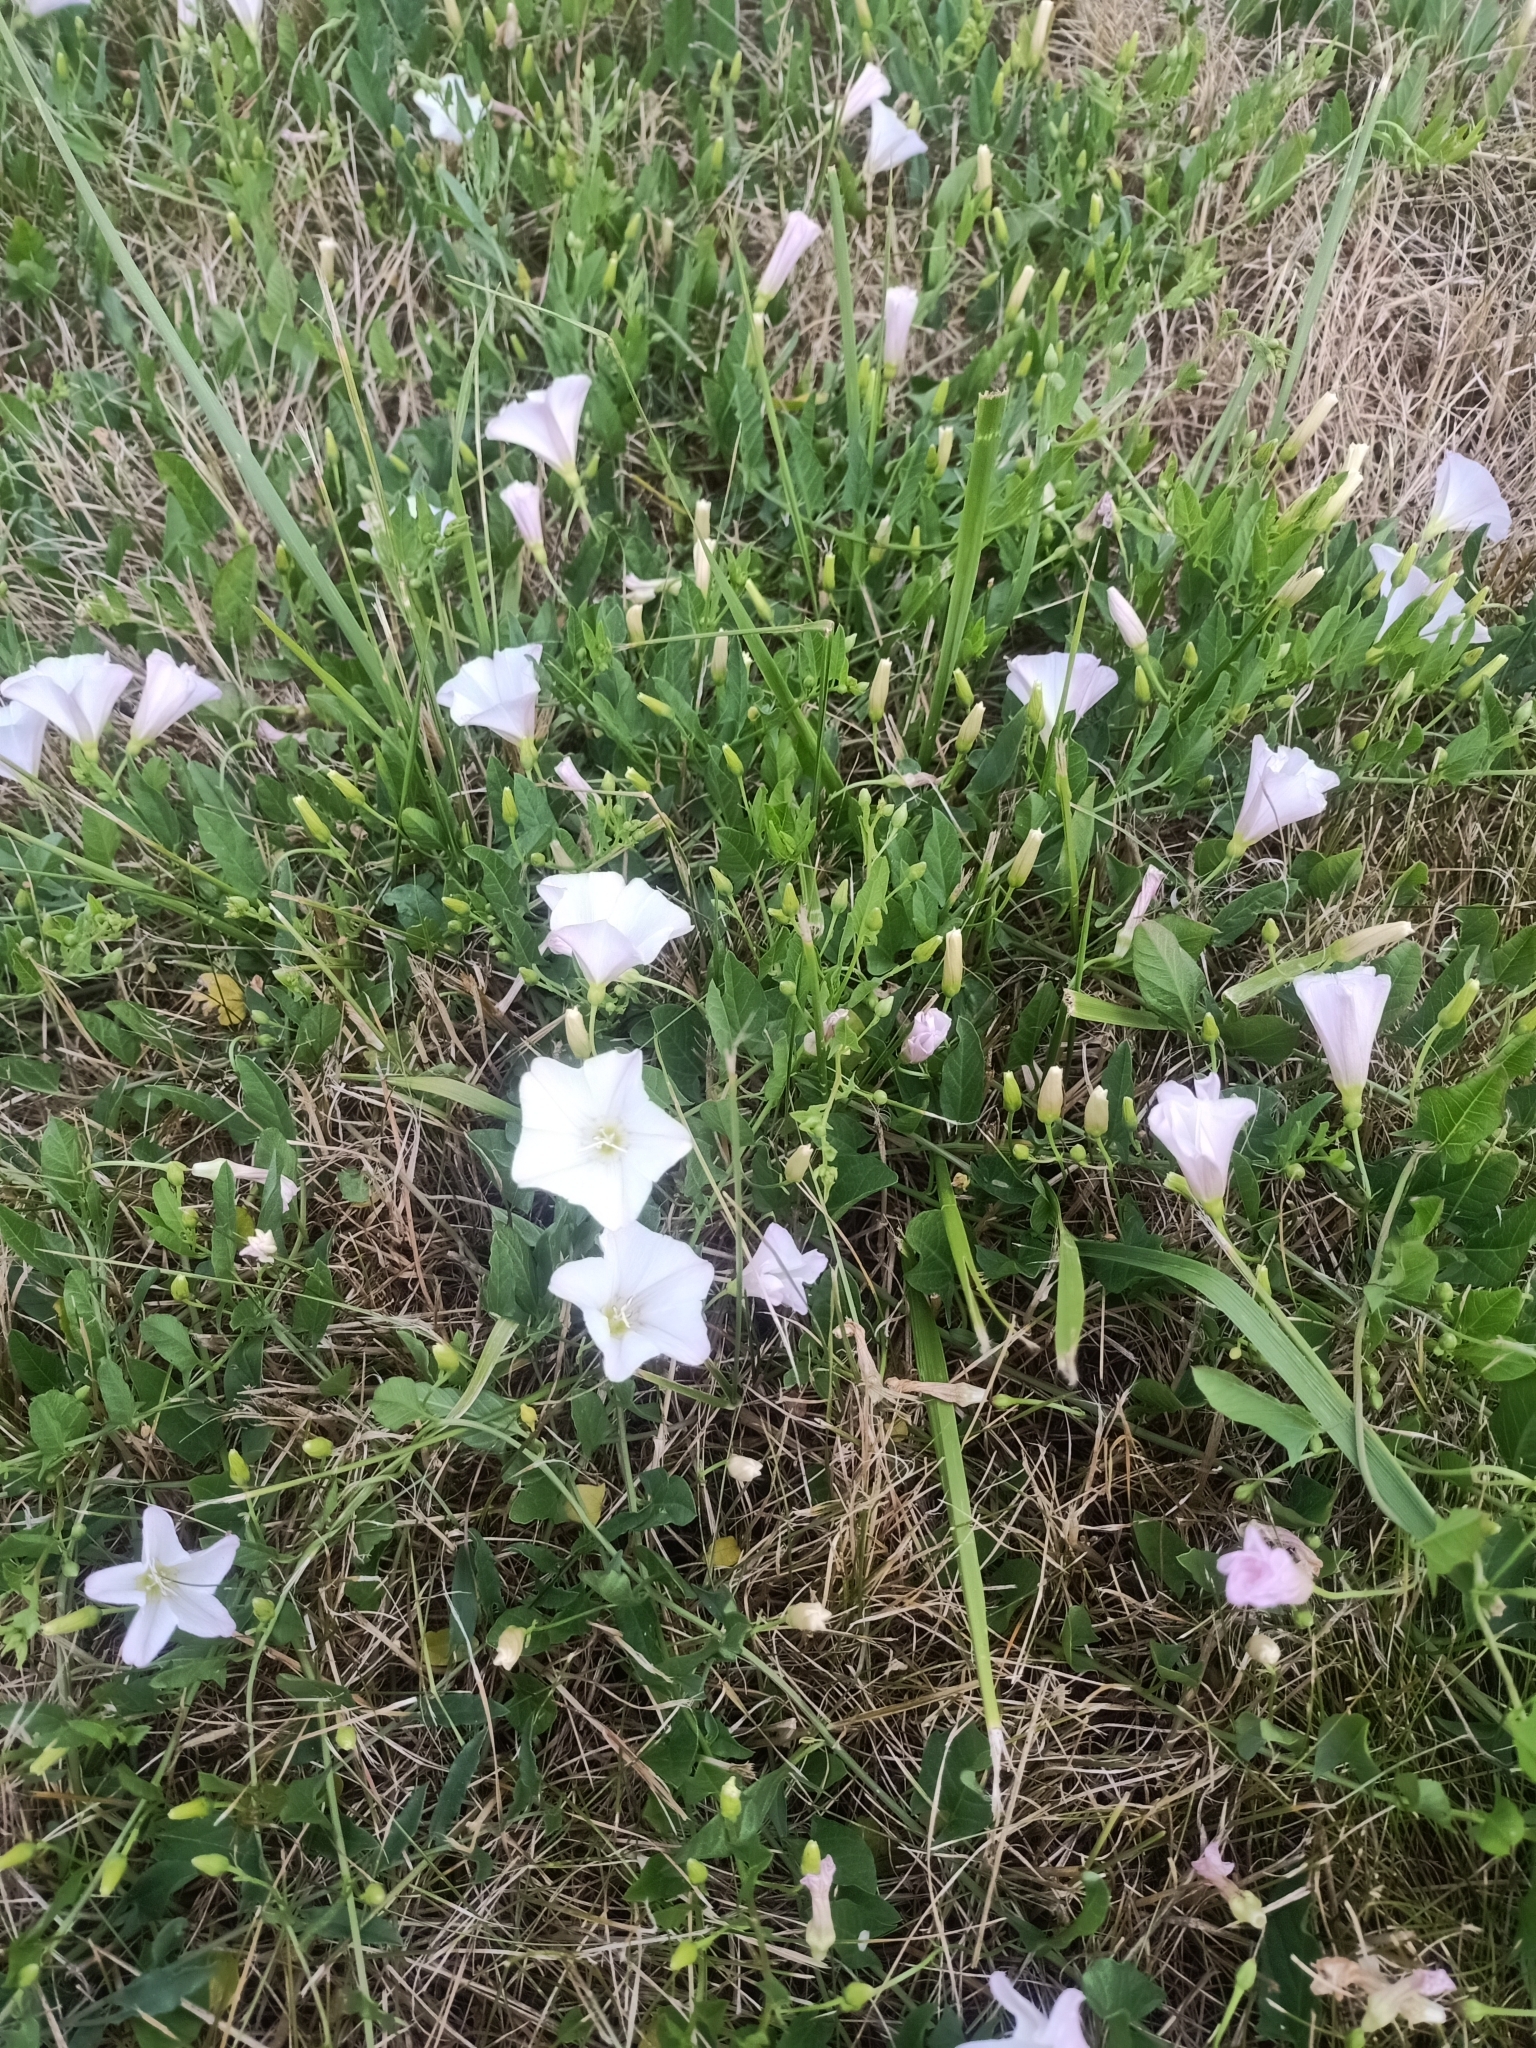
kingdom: Plantae
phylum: Tracheophyta
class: Magnoliopsida
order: Solanales
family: Convolvulaceae
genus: Convolvulus
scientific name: Convolvulus arvensis
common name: Field bindweed
